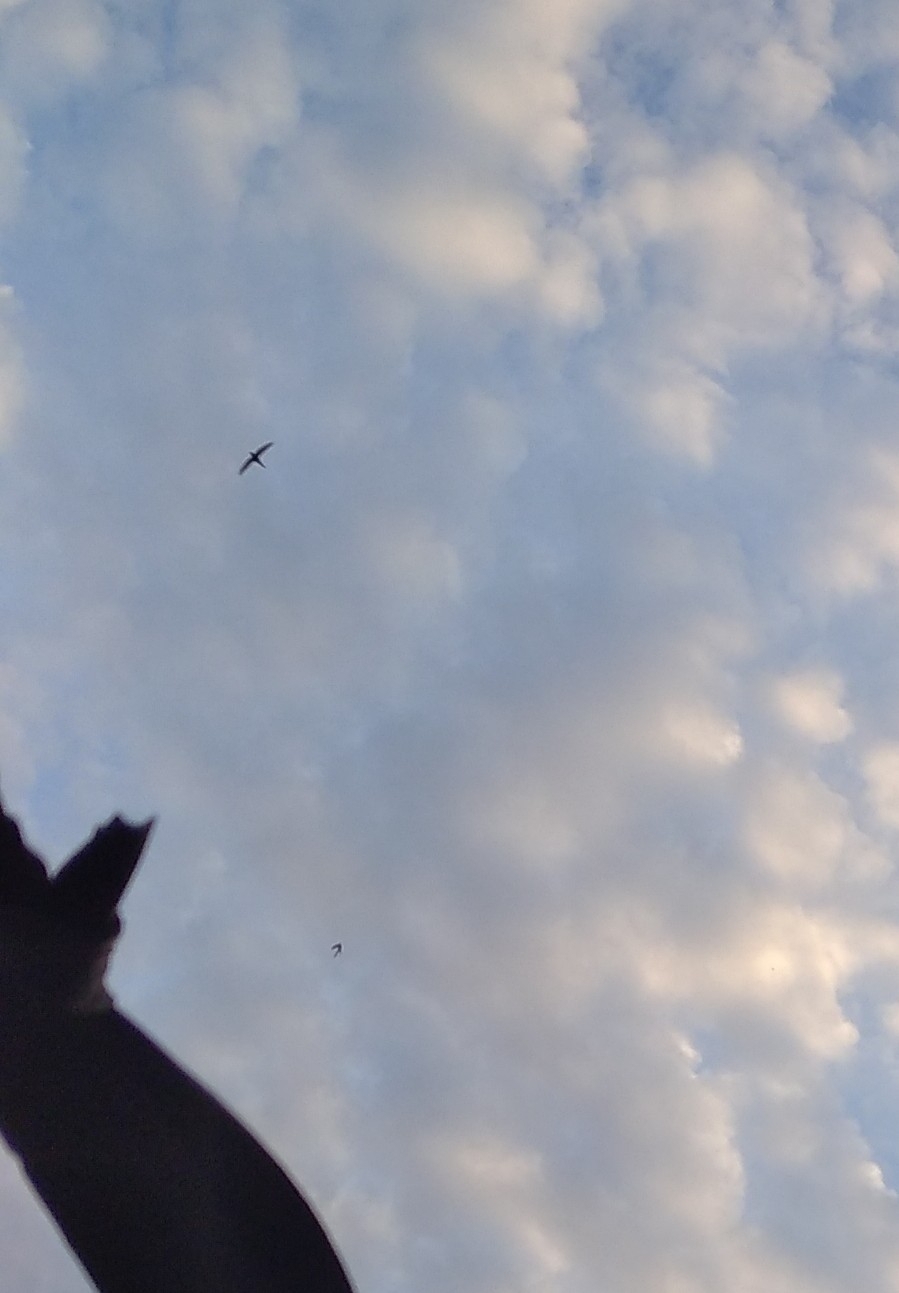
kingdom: Animalia
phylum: Chordata
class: Aves
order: Apodiformes
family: Apodidae
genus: Apus
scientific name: Apus apus
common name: Common swift
